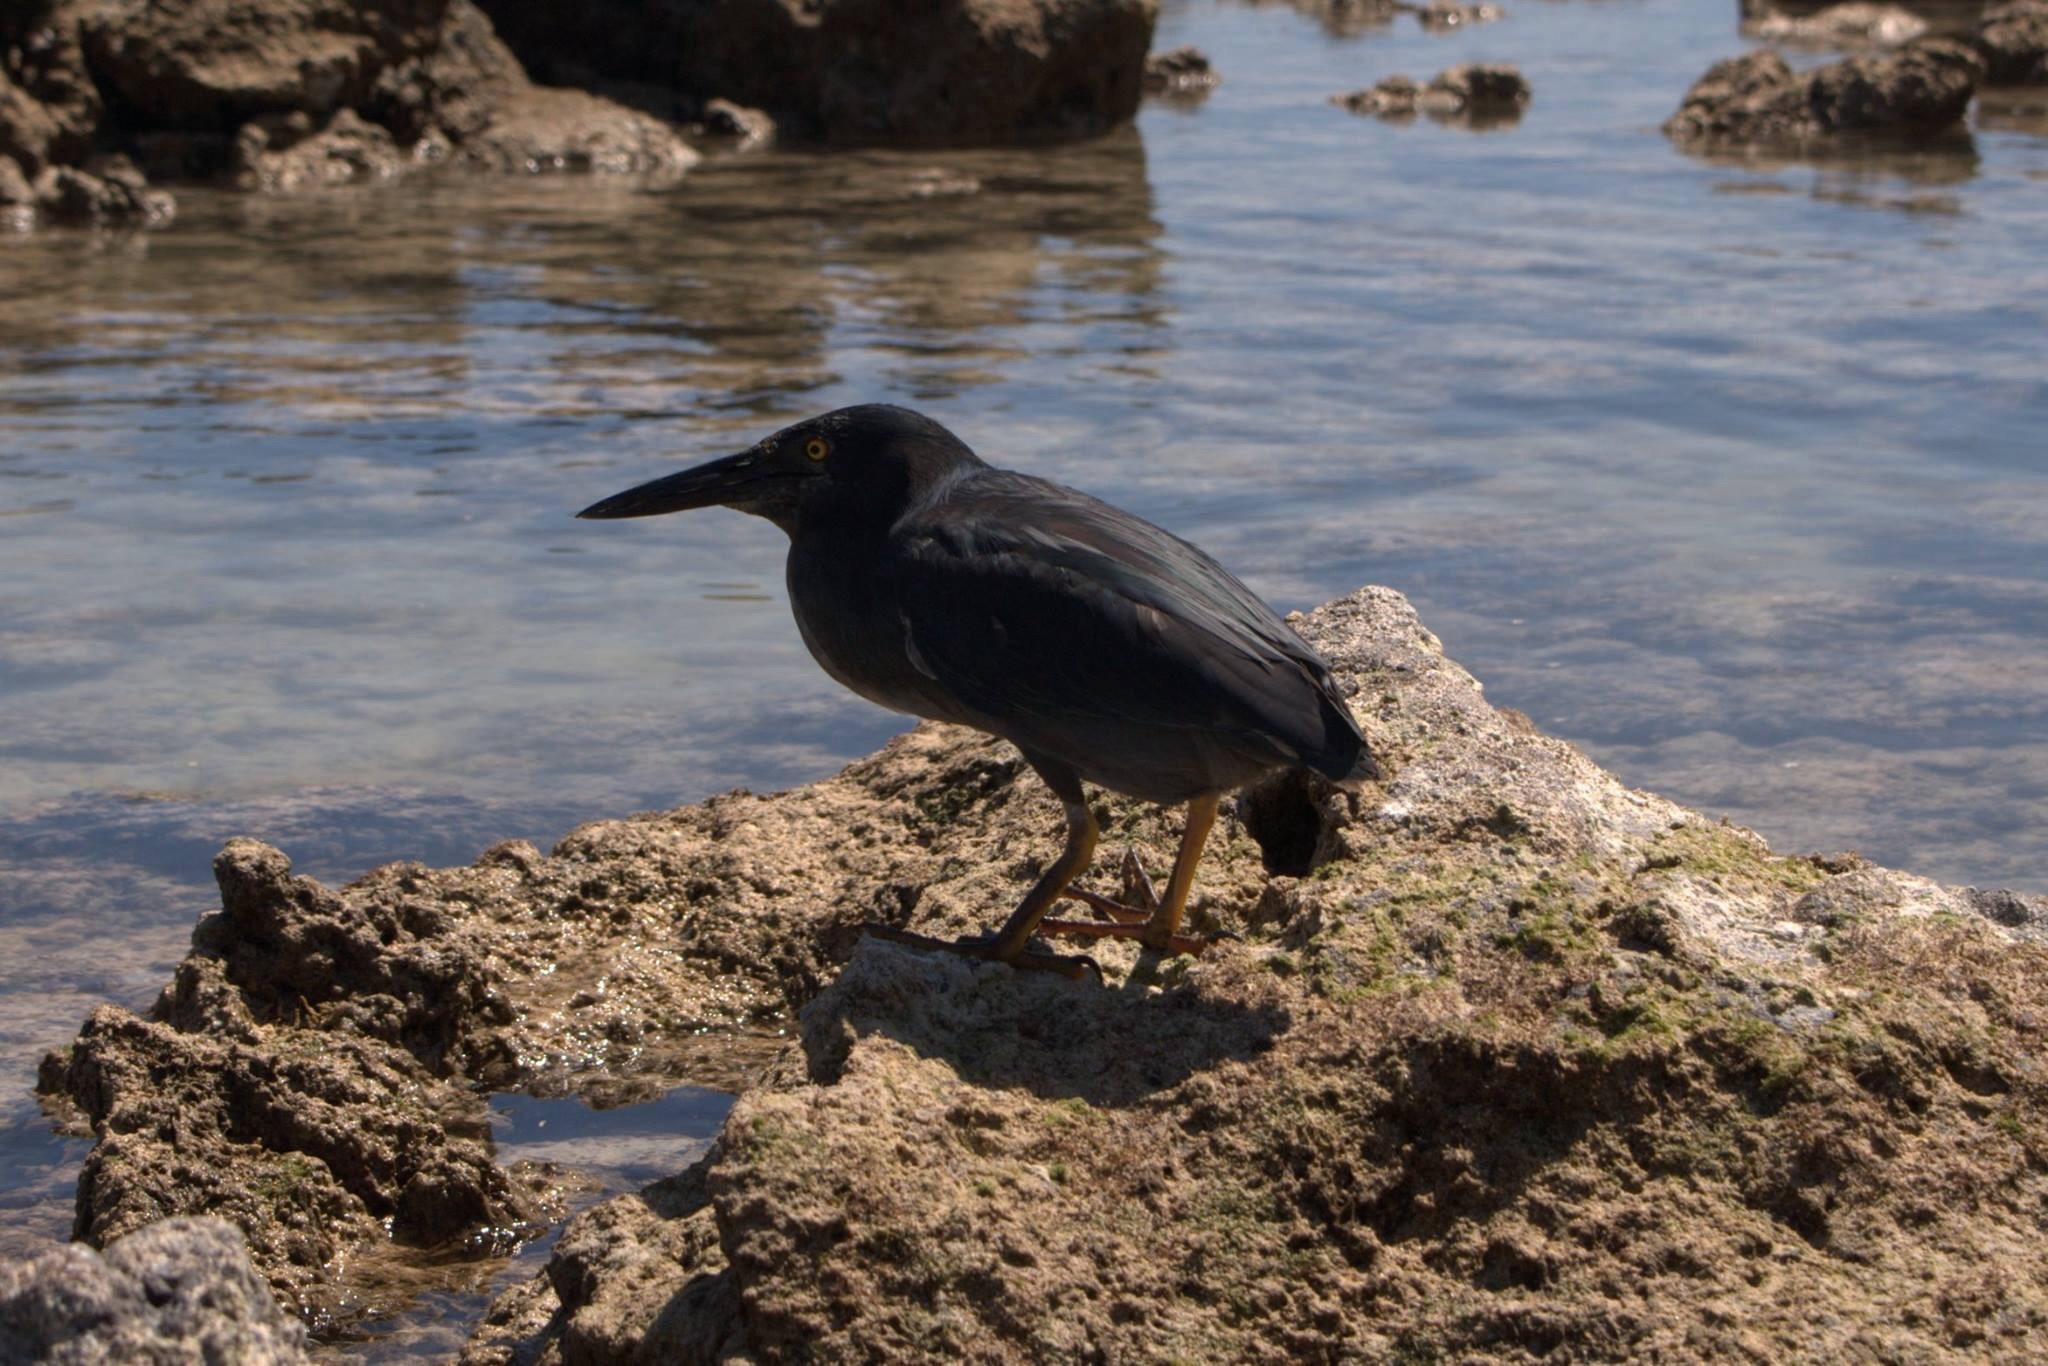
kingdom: Animalia
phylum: Chordata
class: Aves
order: Pelecaniformes
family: Ardeidae
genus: Butorides
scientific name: Butorides striata
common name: Striated heron
